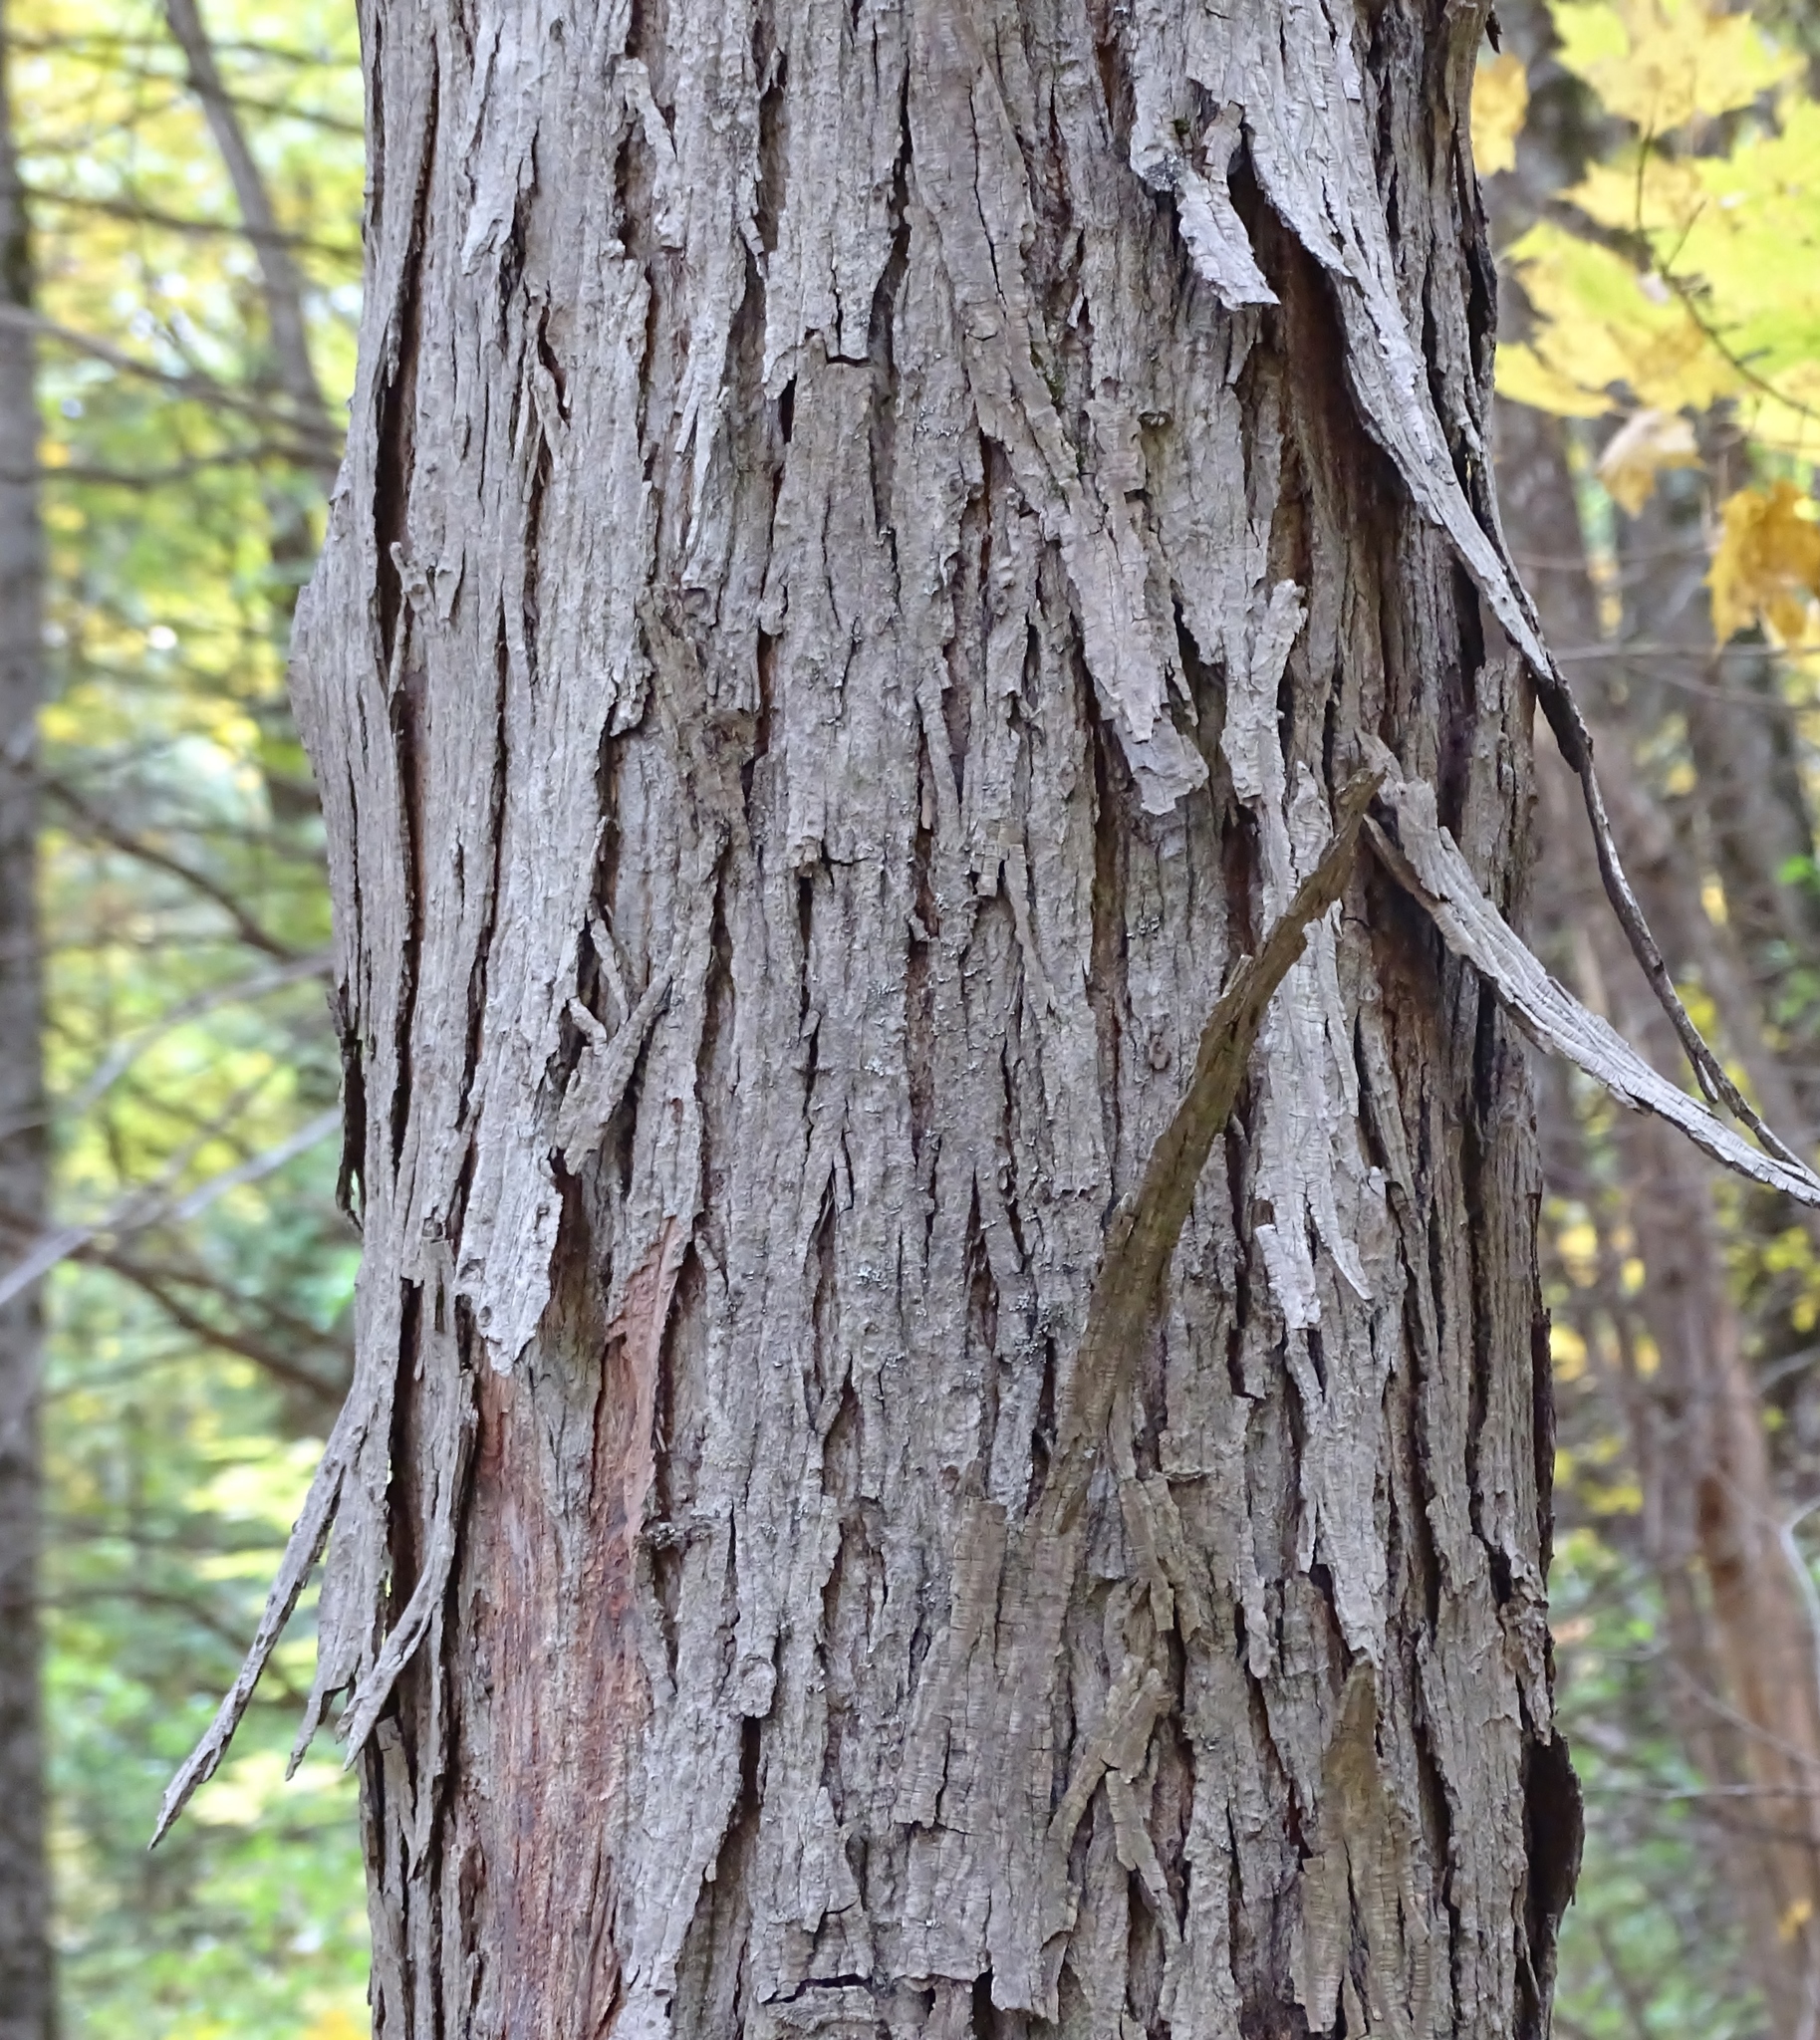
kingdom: Plantae
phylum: Tracheophyta
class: Magnoliopsida
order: Fagales
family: Juglandaceae
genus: Carya
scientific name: Carya ovata
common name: Shagbark hickory
